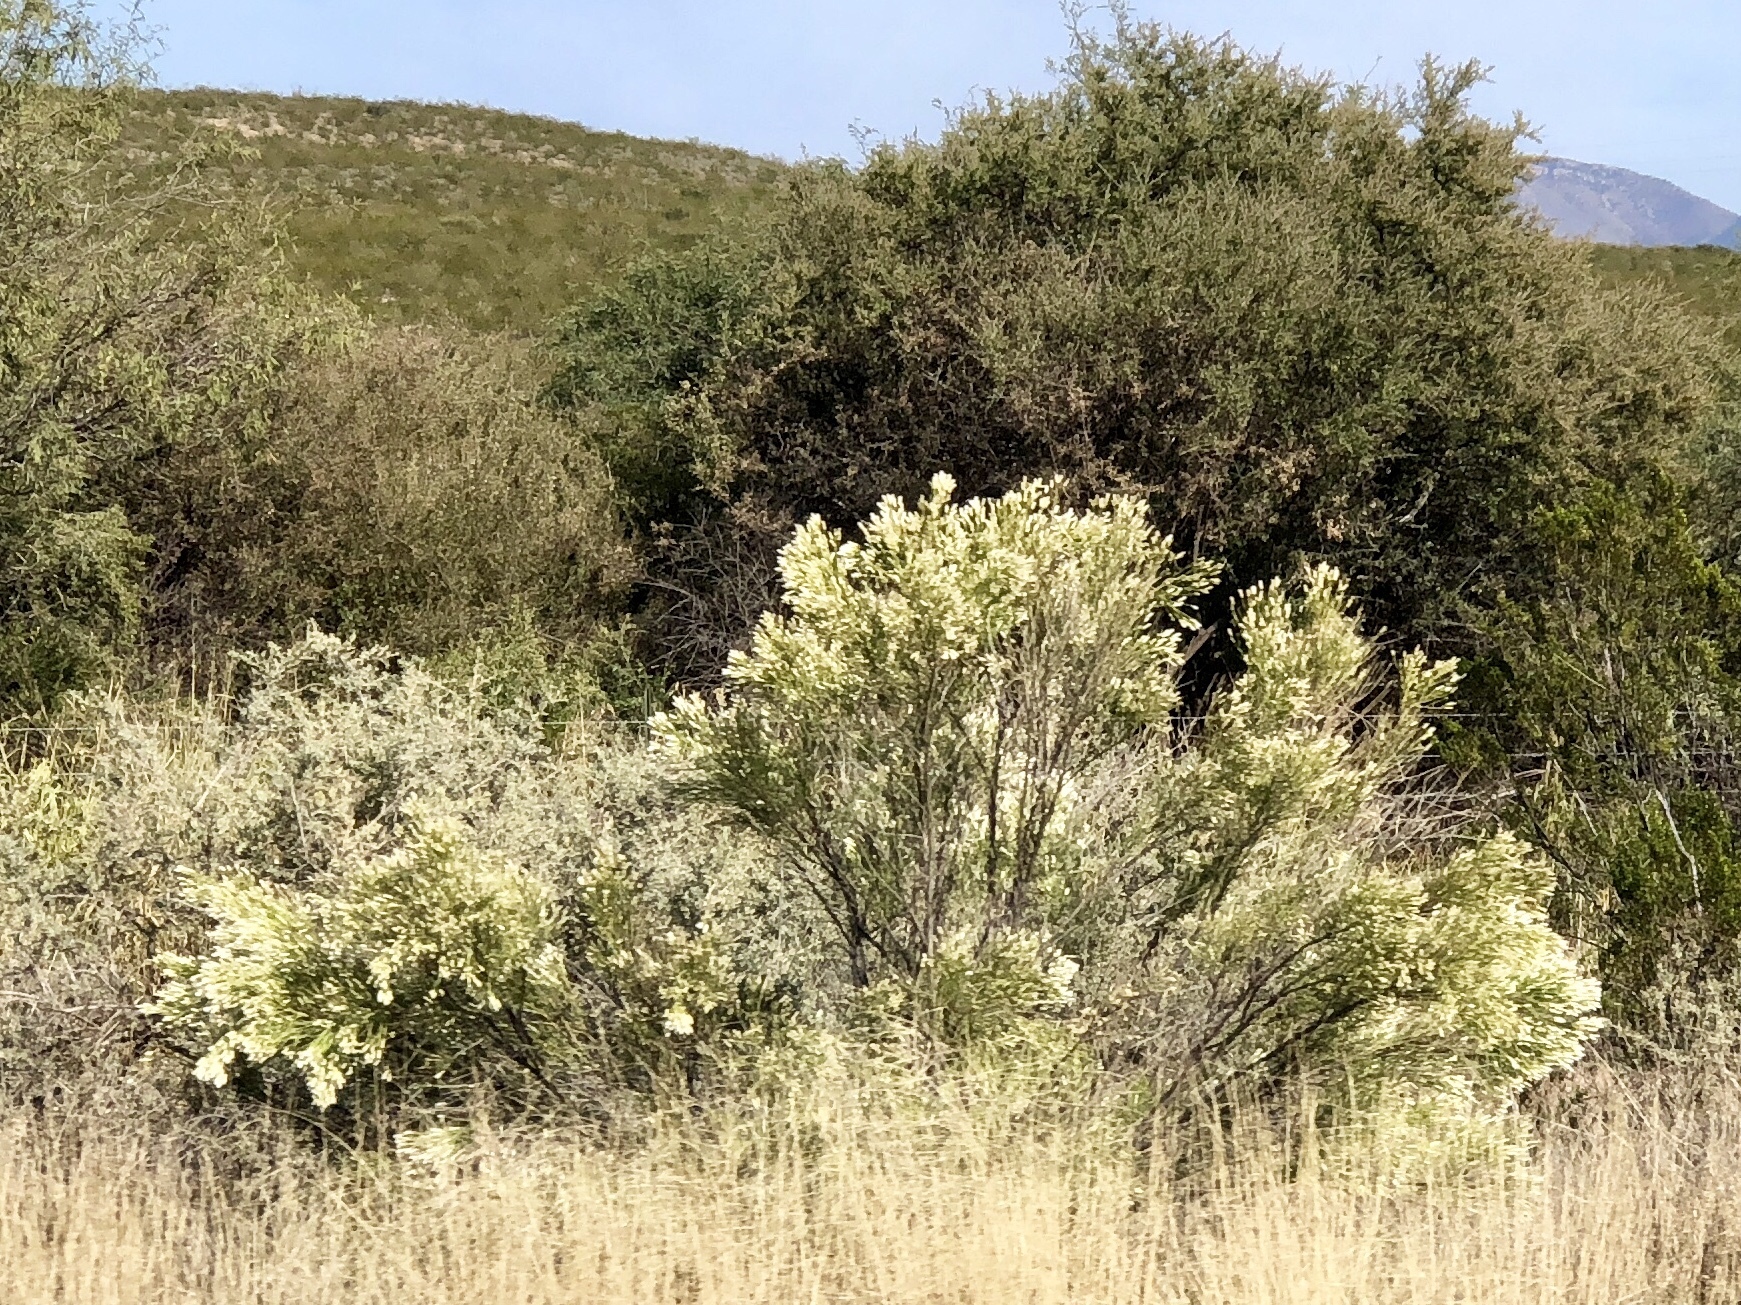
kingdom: Plantae
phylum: Tracheophyta
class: Magnoliopsida
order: Asterales
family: Asteraceae
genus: Baccharis
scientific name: Baccharis sarothroides
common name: Desert-broom
